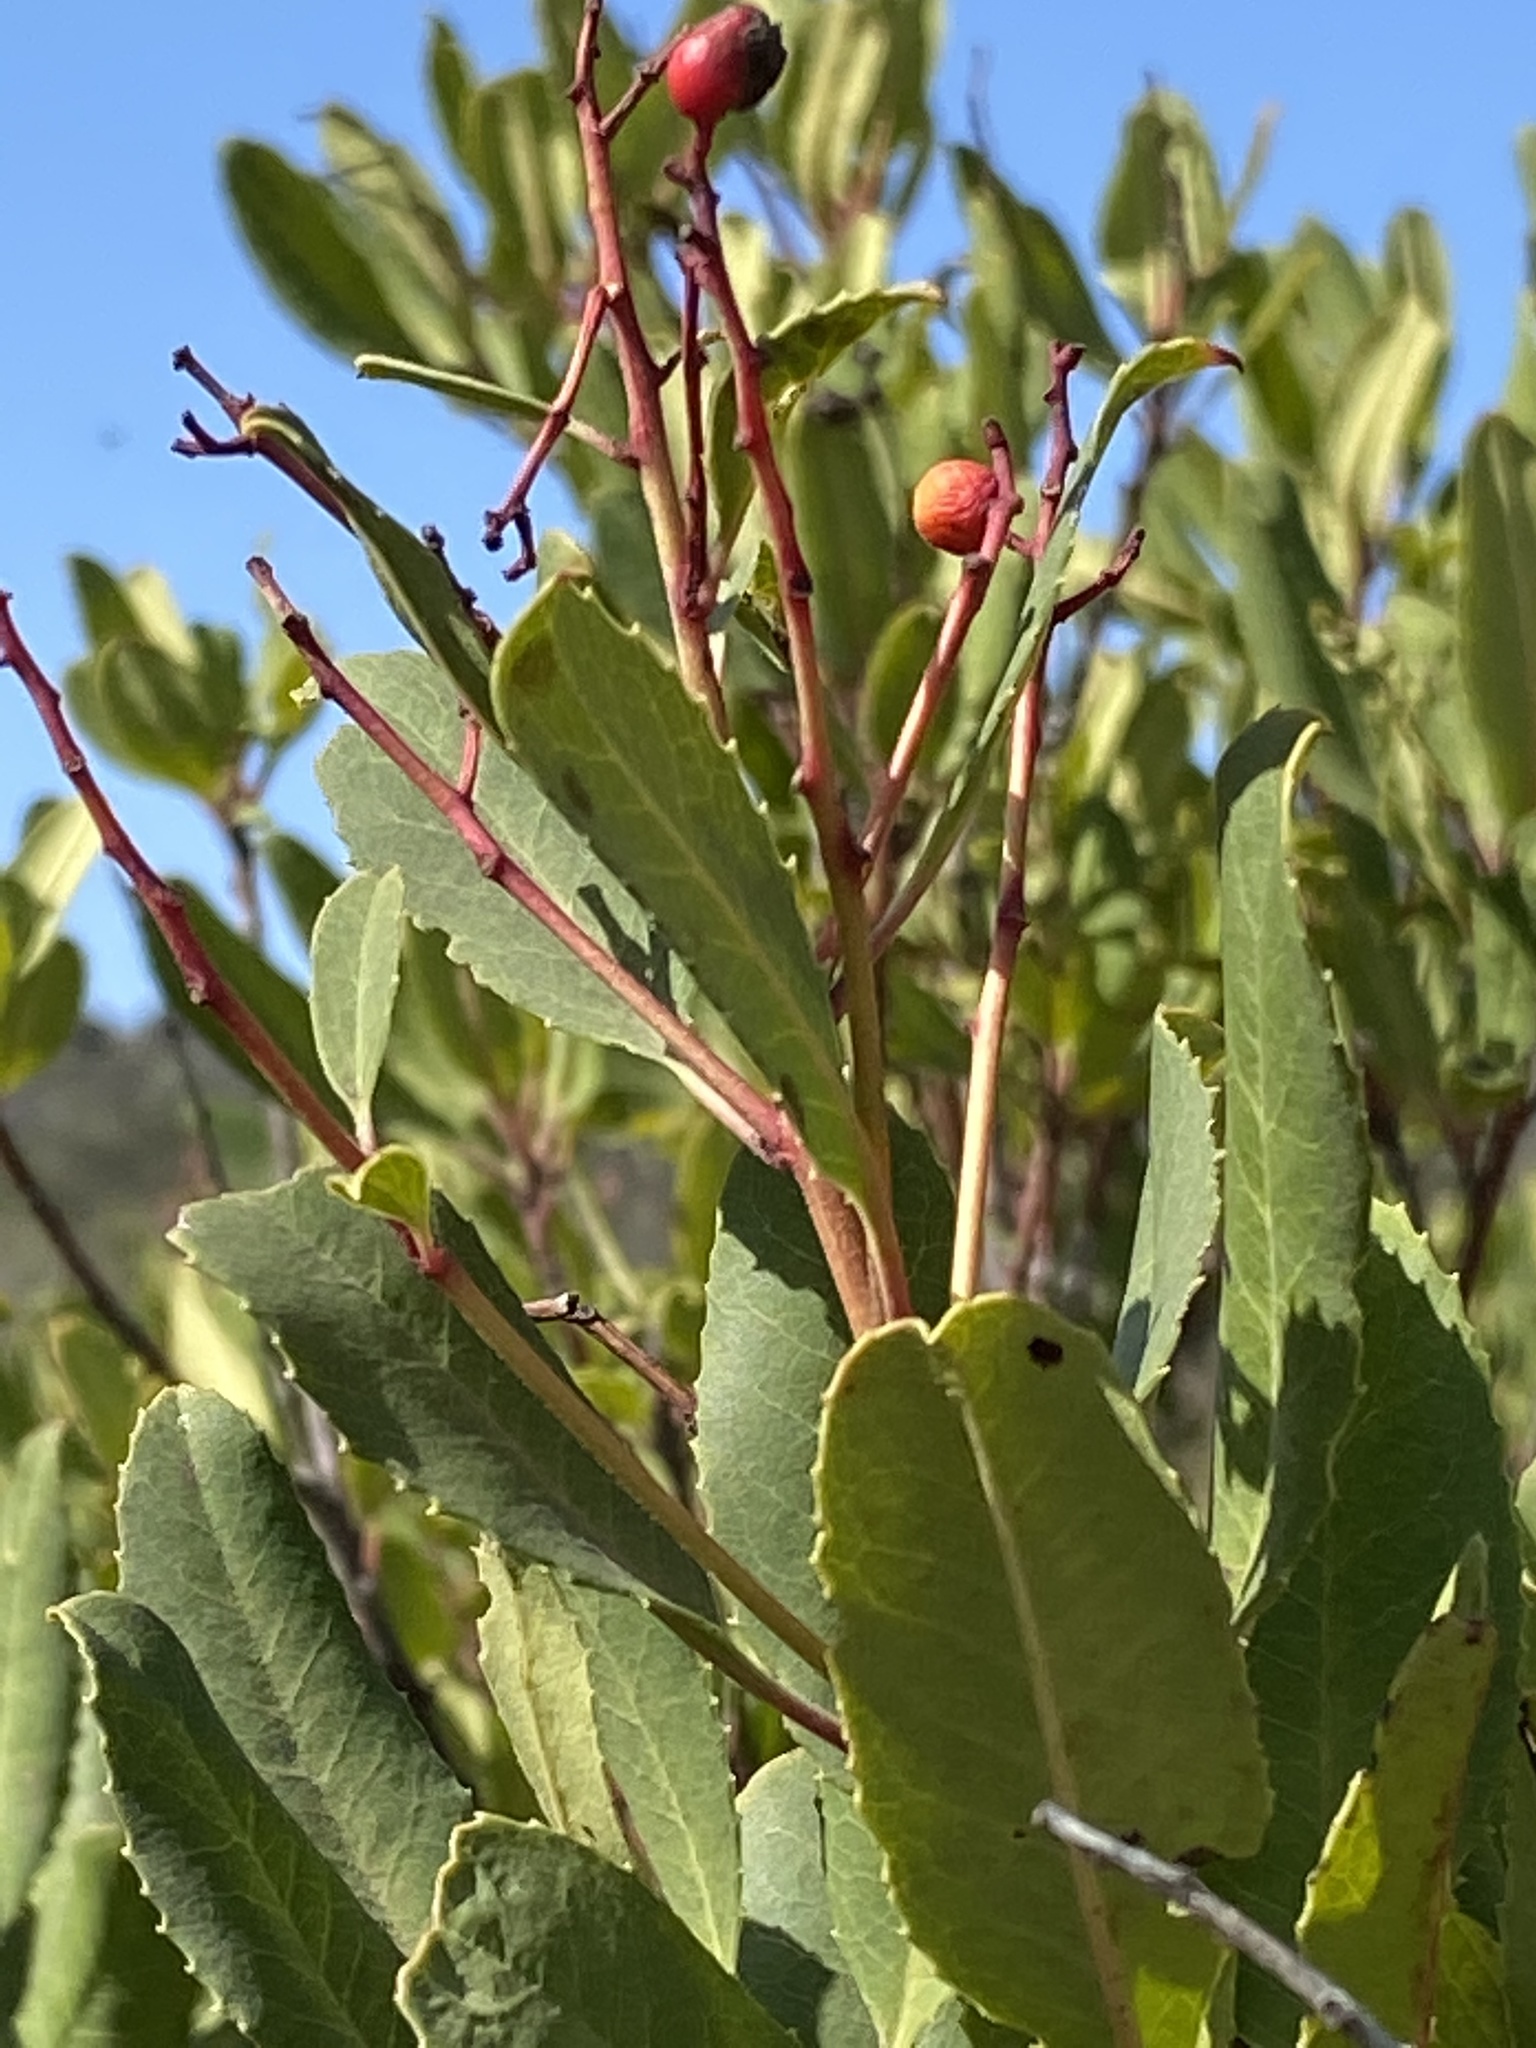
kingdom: Plantae
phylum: Tracheophyta
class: Magnoliopsida
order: Rosales
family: Rosaceae
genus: Heteromeles
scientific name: Heteromeles arbutifolia
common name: California-holly
